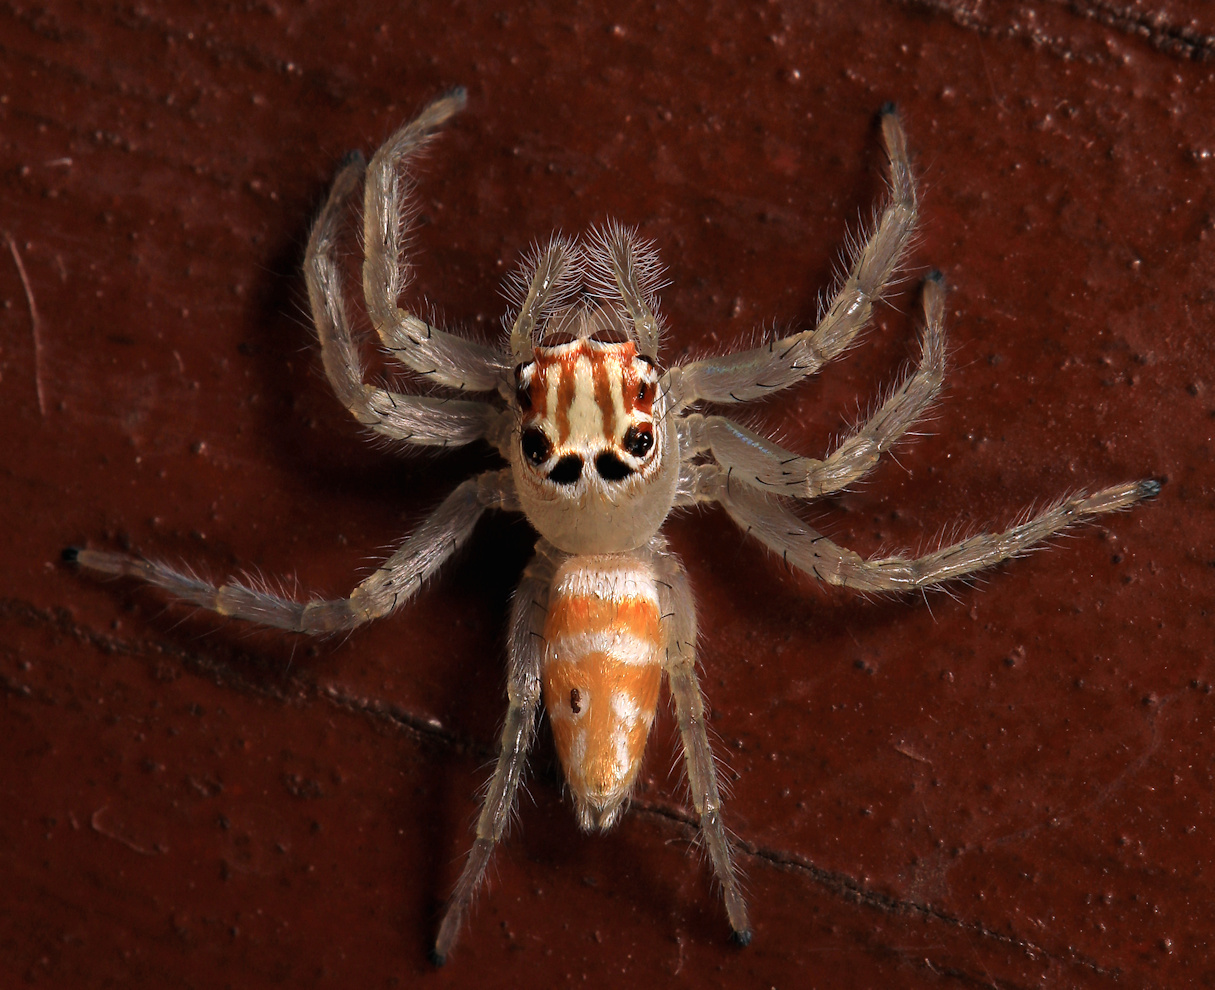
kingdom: Animalia
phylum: Arthropoda
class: Arachnida
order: Araneae
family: Salticidae
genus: Brancus
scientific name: Brancus mustelus
